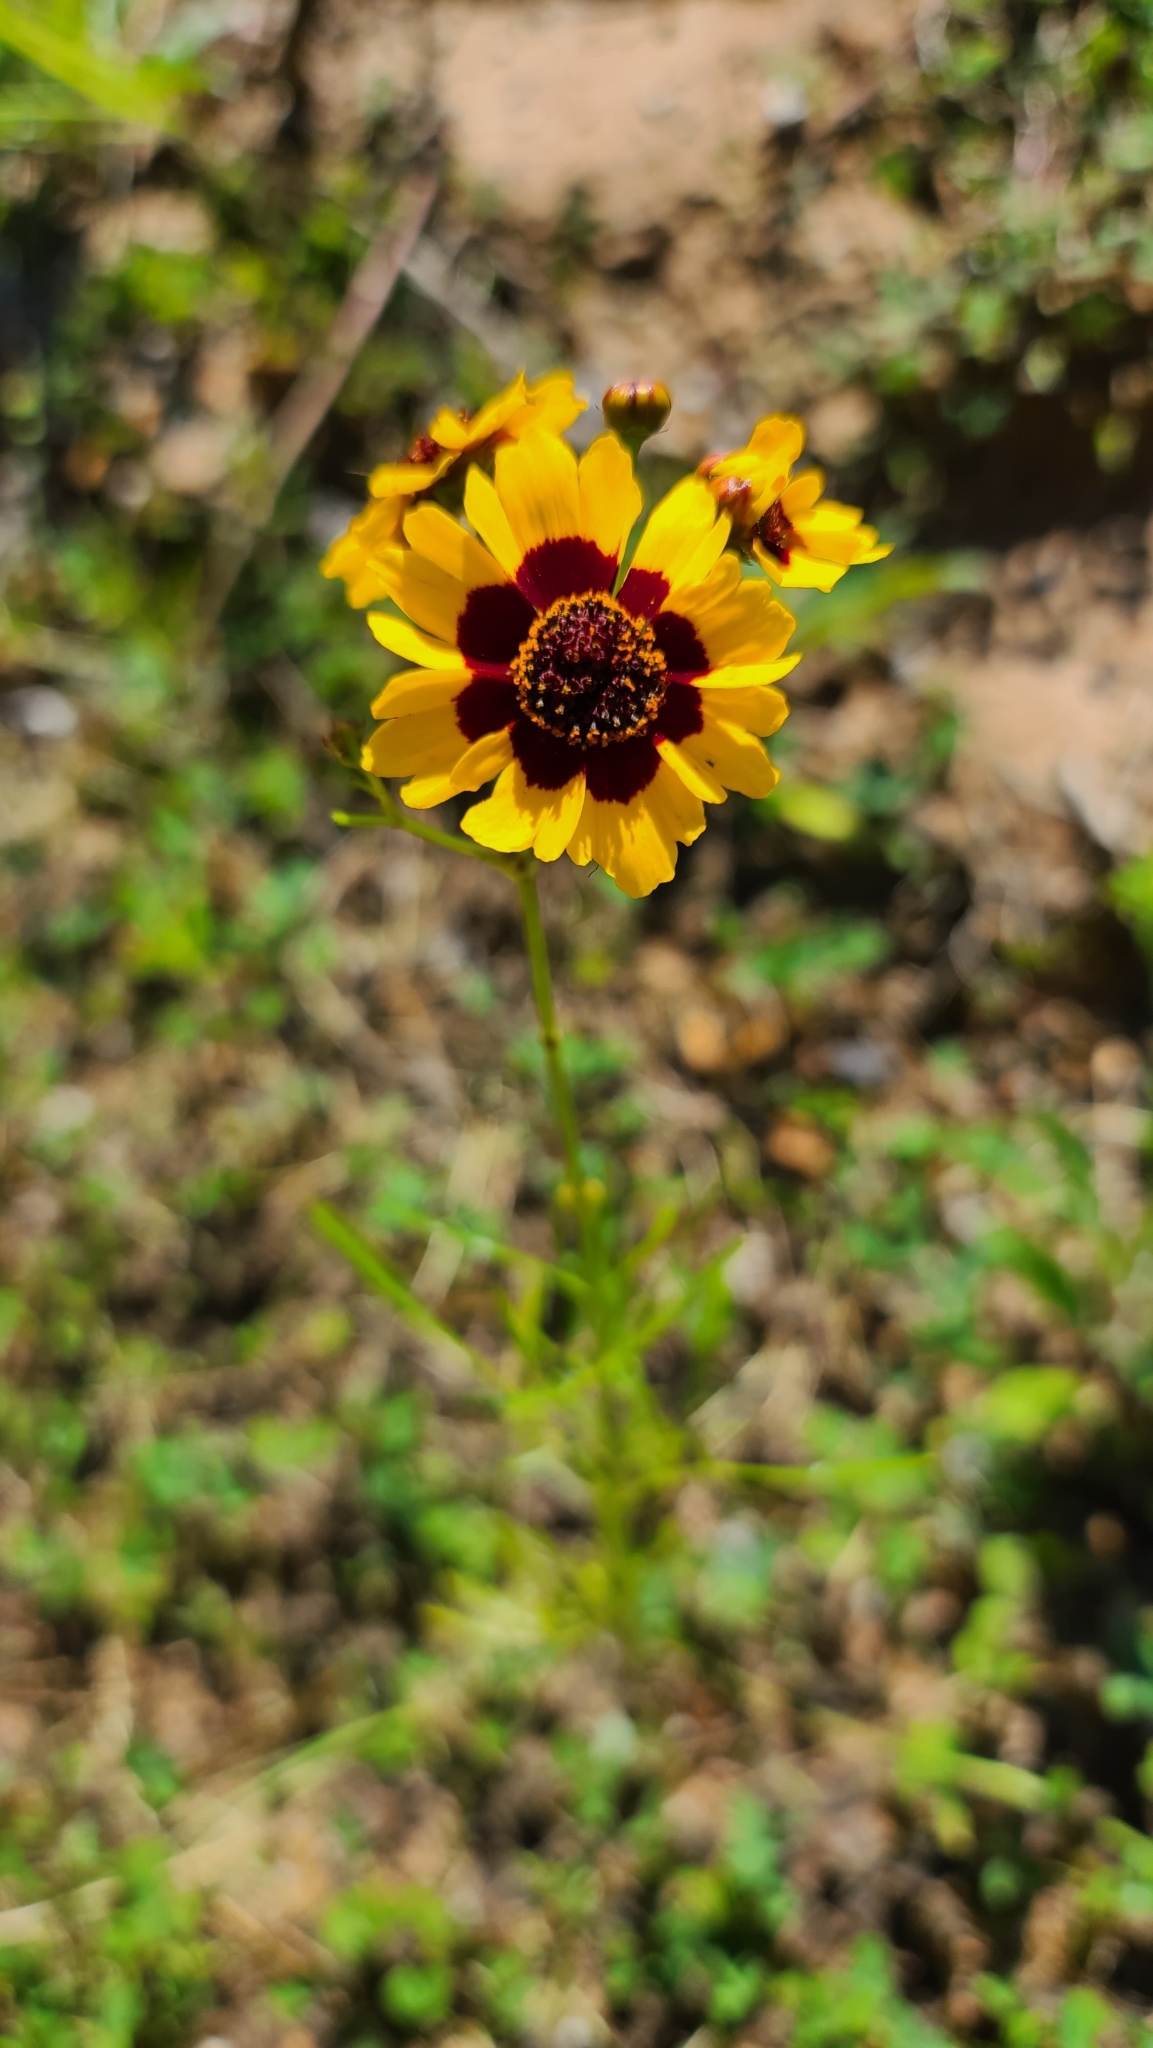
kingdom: Plantae
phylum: Tracheophyta
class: Magnoliopsida
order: Asterales
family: Asteraceae
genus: Coreopsis
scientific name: Coreopsis tinctoria
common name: Garden tickseed
